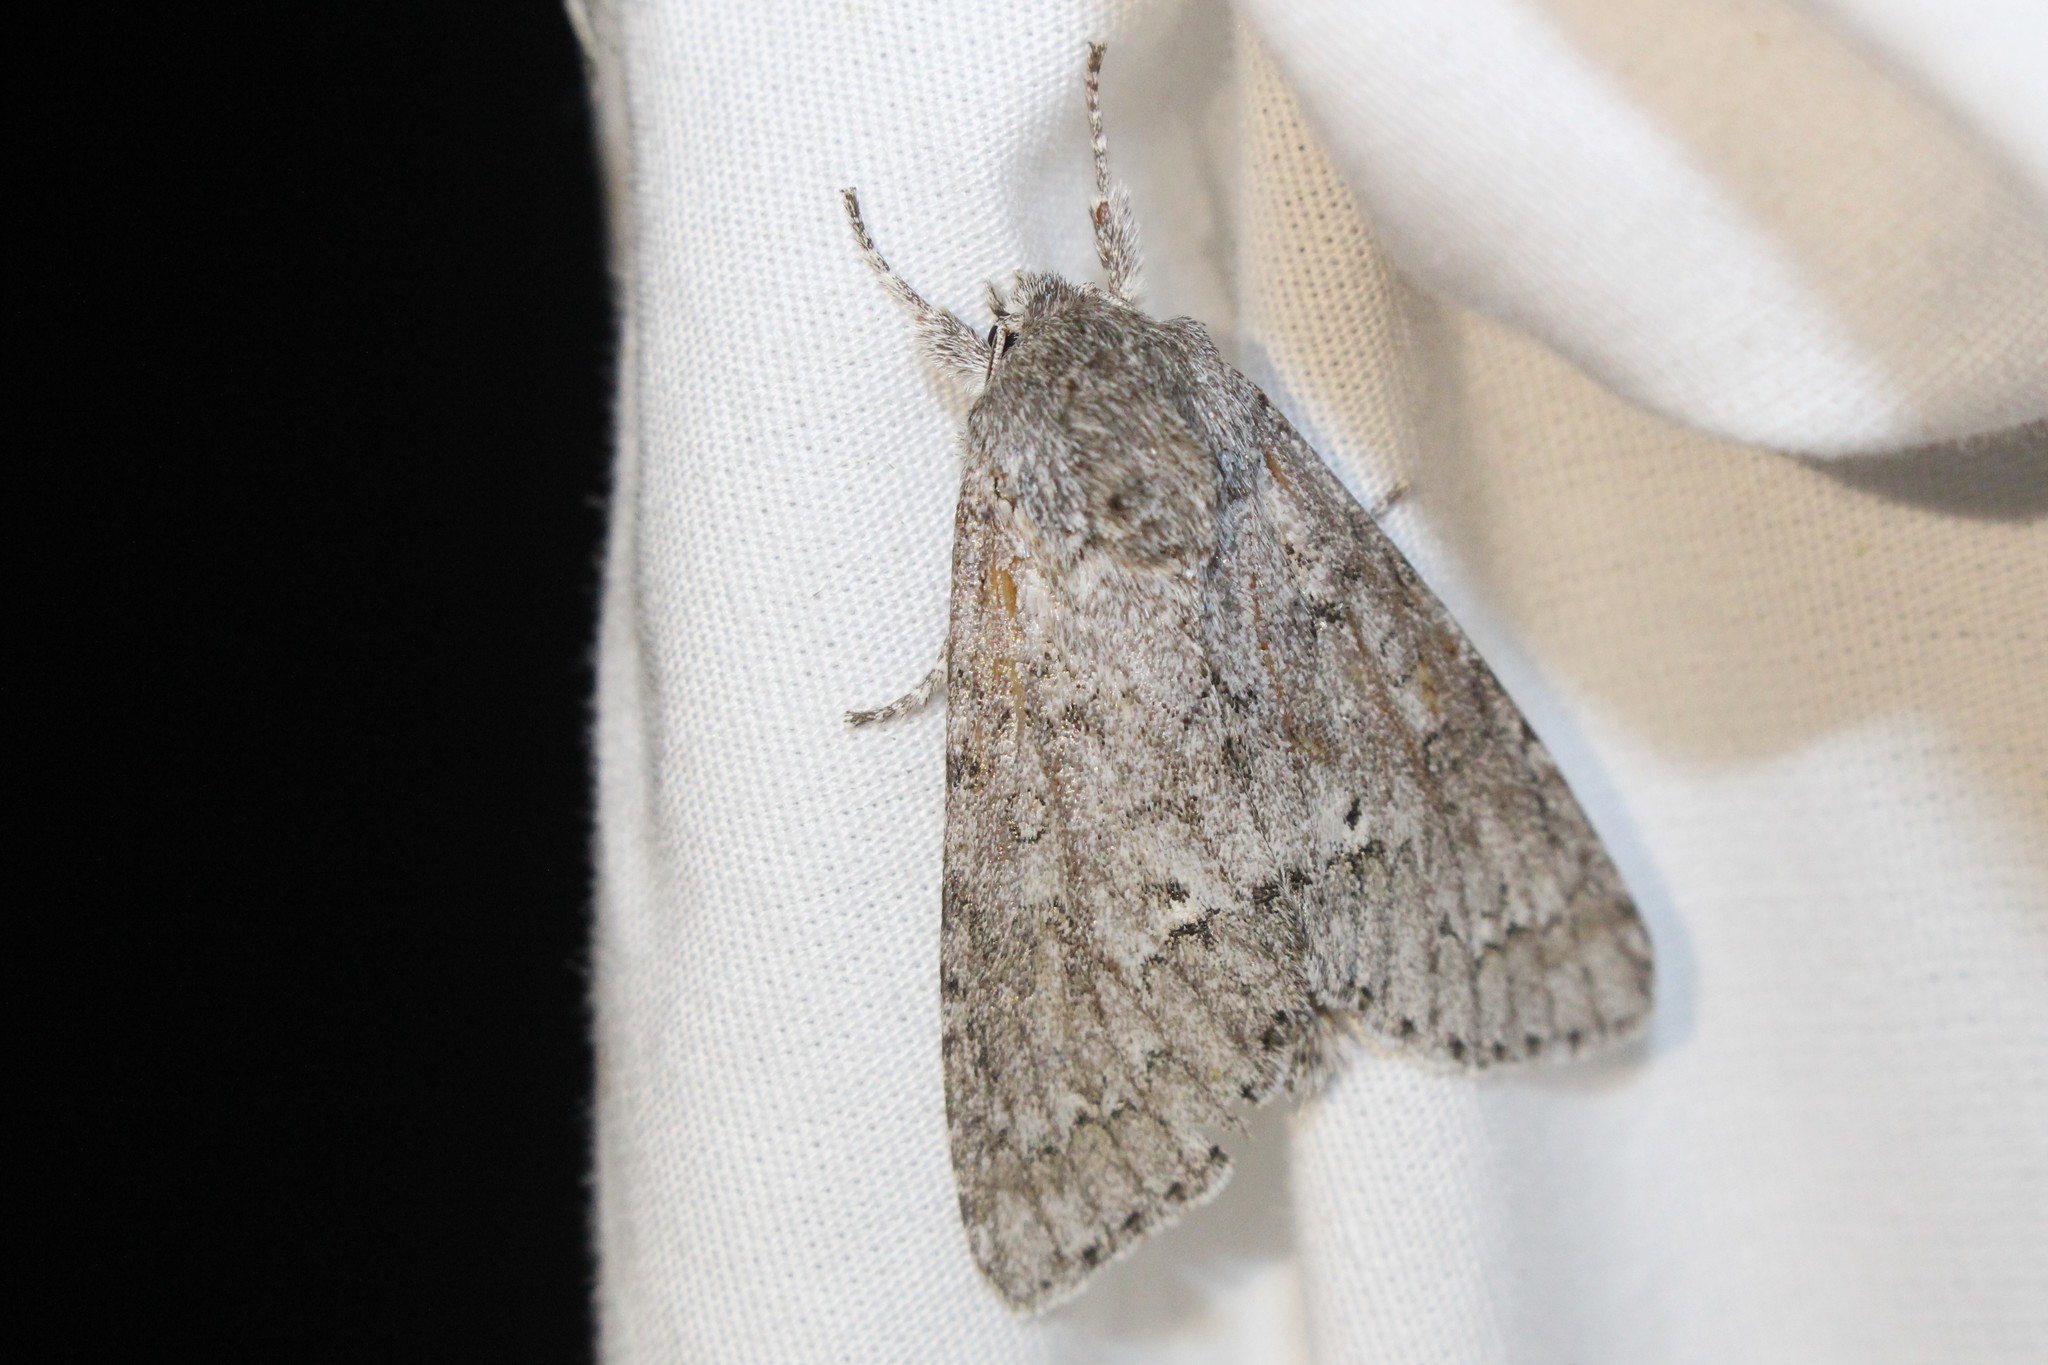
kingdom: Animalia
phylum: Arthropoda
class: Insecta
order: Lepidoptera
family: Noctuidae
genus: Acronicta
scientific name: Acronicta insita
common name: Large gray dagger
